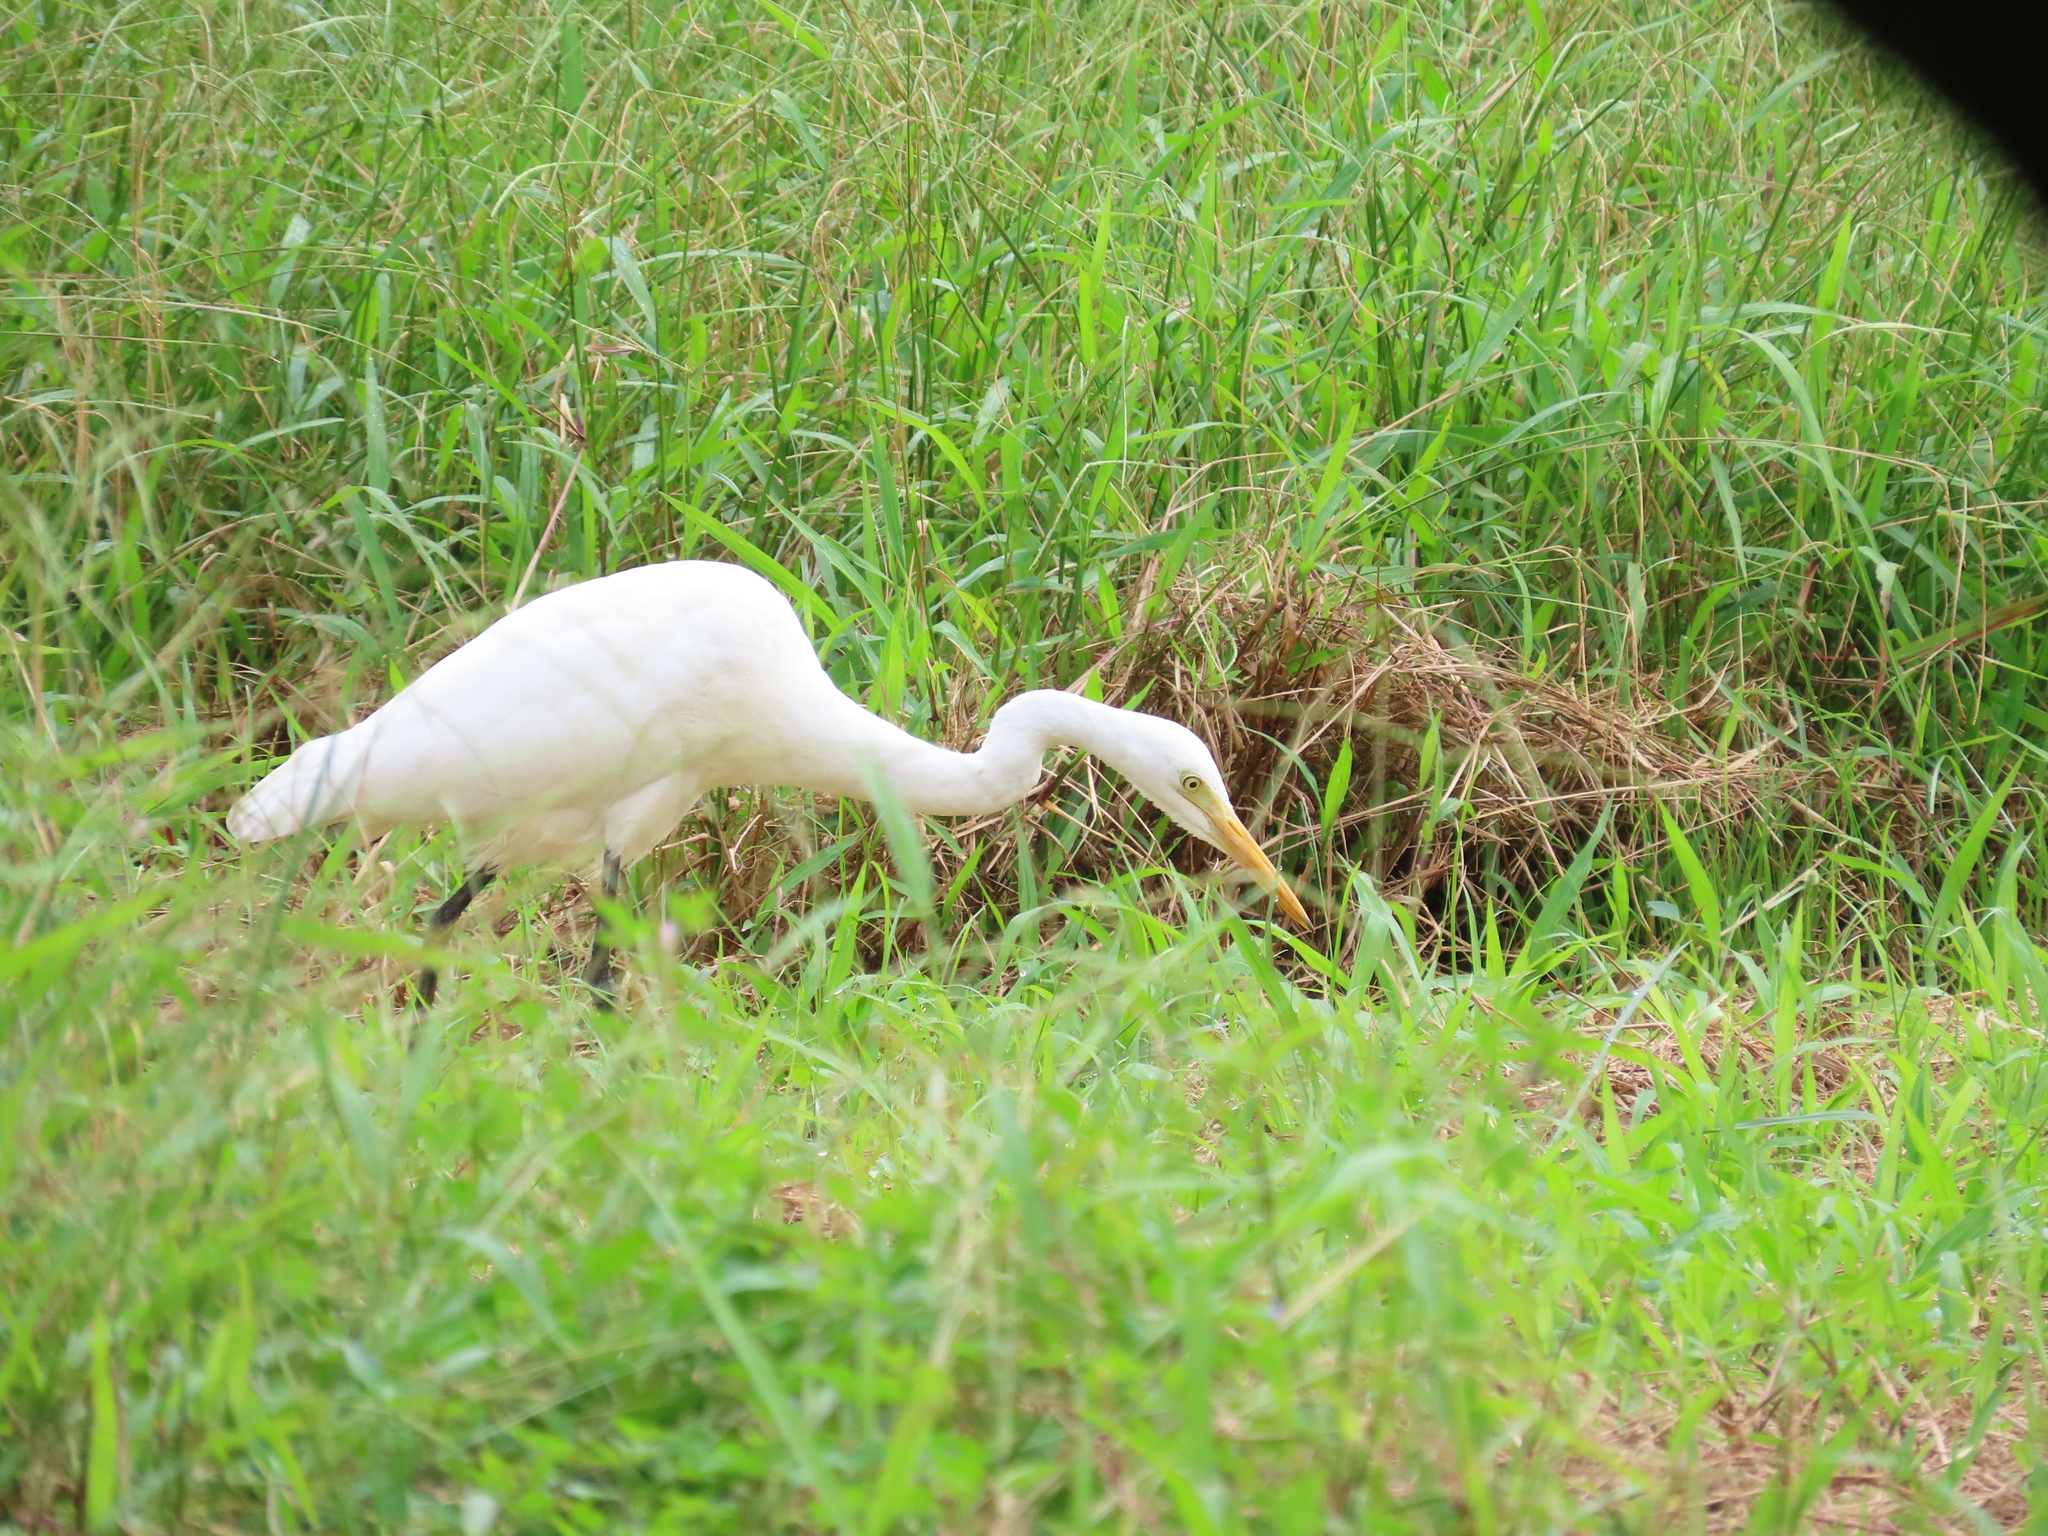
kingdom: Animalia
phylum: Chordata
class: Aves
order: Pelecaniformes
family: Ardeidae
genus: Egretta
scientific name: Egretta intermedia
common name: Intermediate egret
